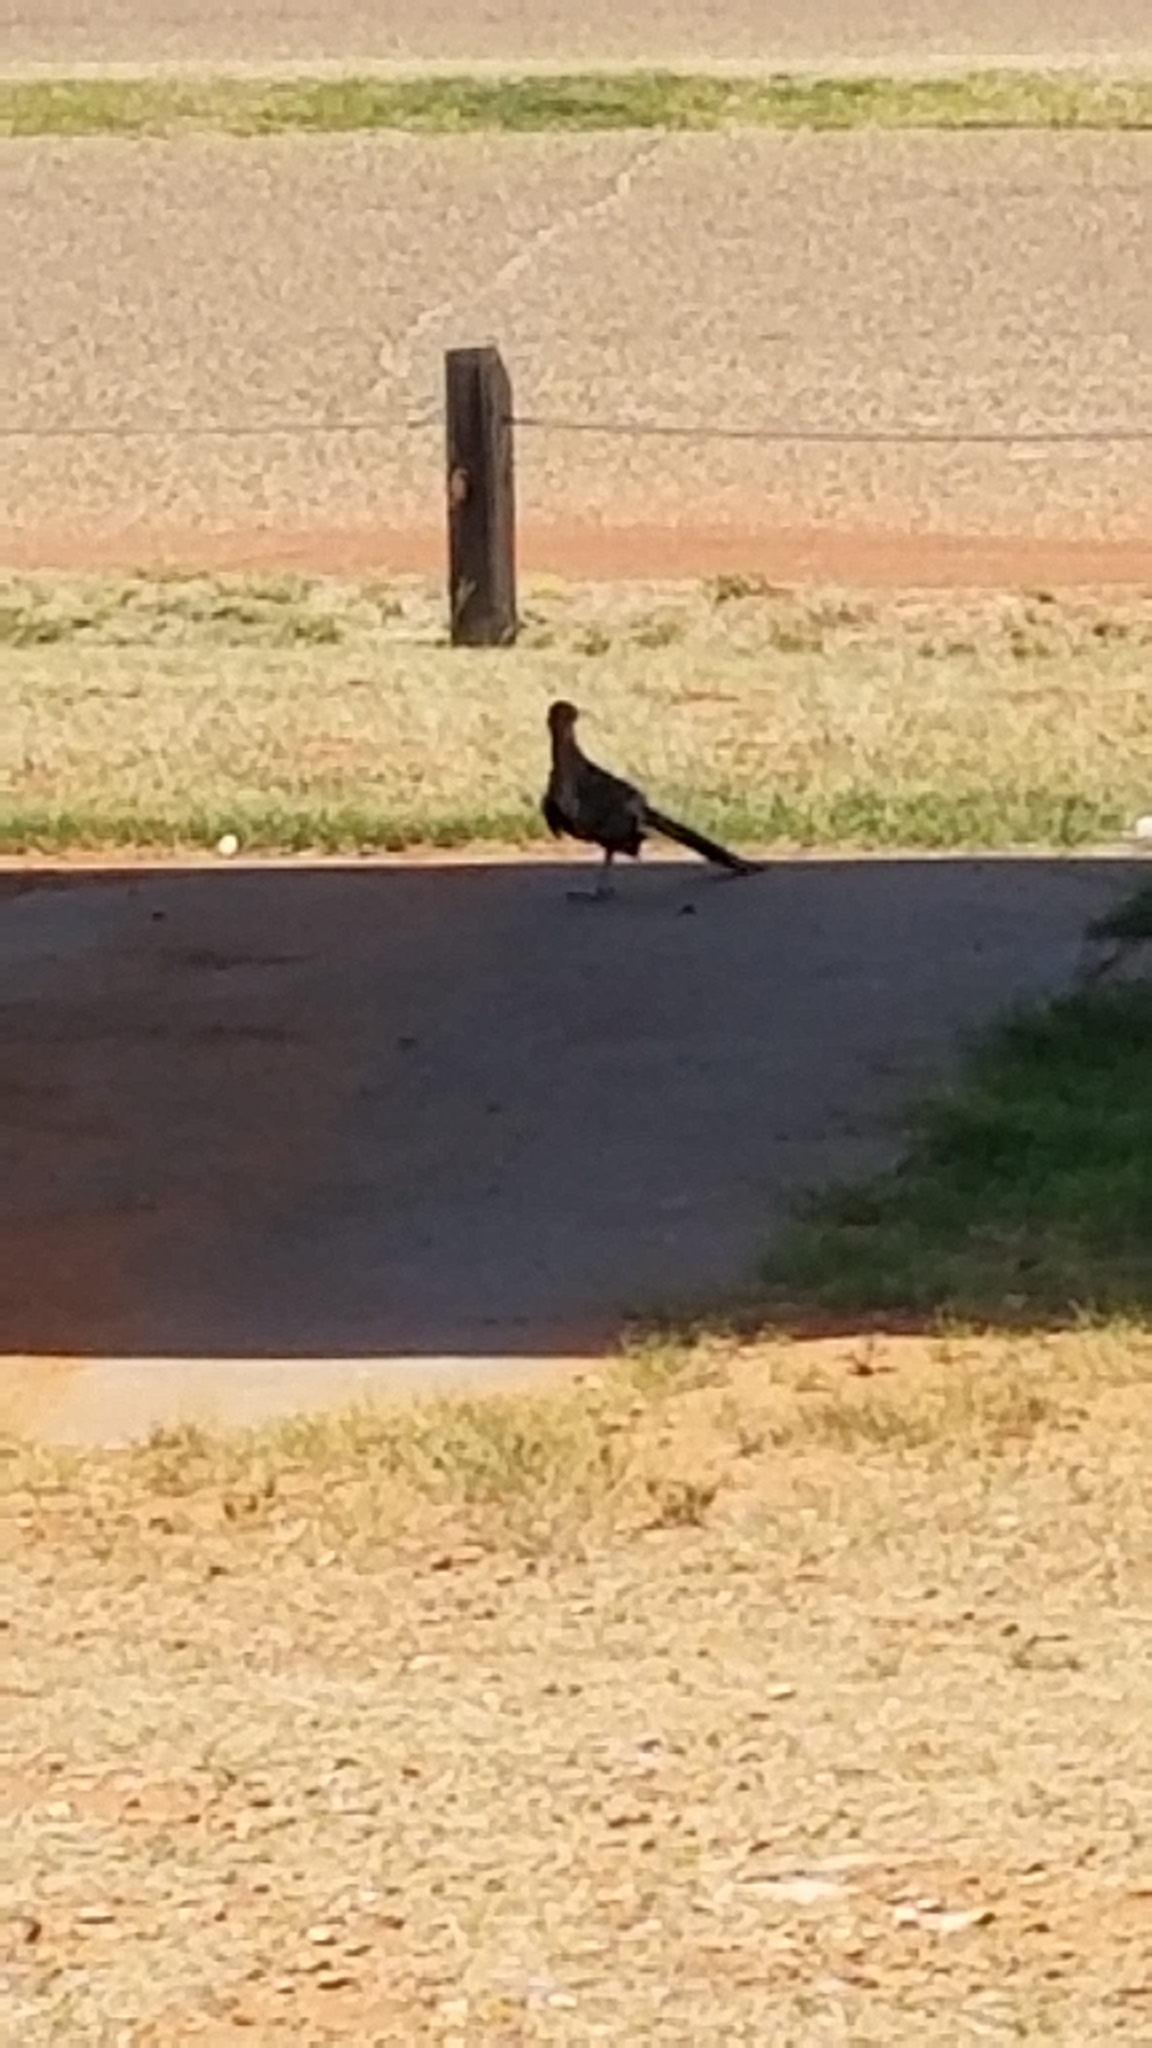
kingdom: Animalia
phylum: Chordata
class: Aves
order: Cuculiformes
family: Cuculidae
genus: Geococcyx
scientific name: Geococcyx californianus
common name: Greater roadrunner
